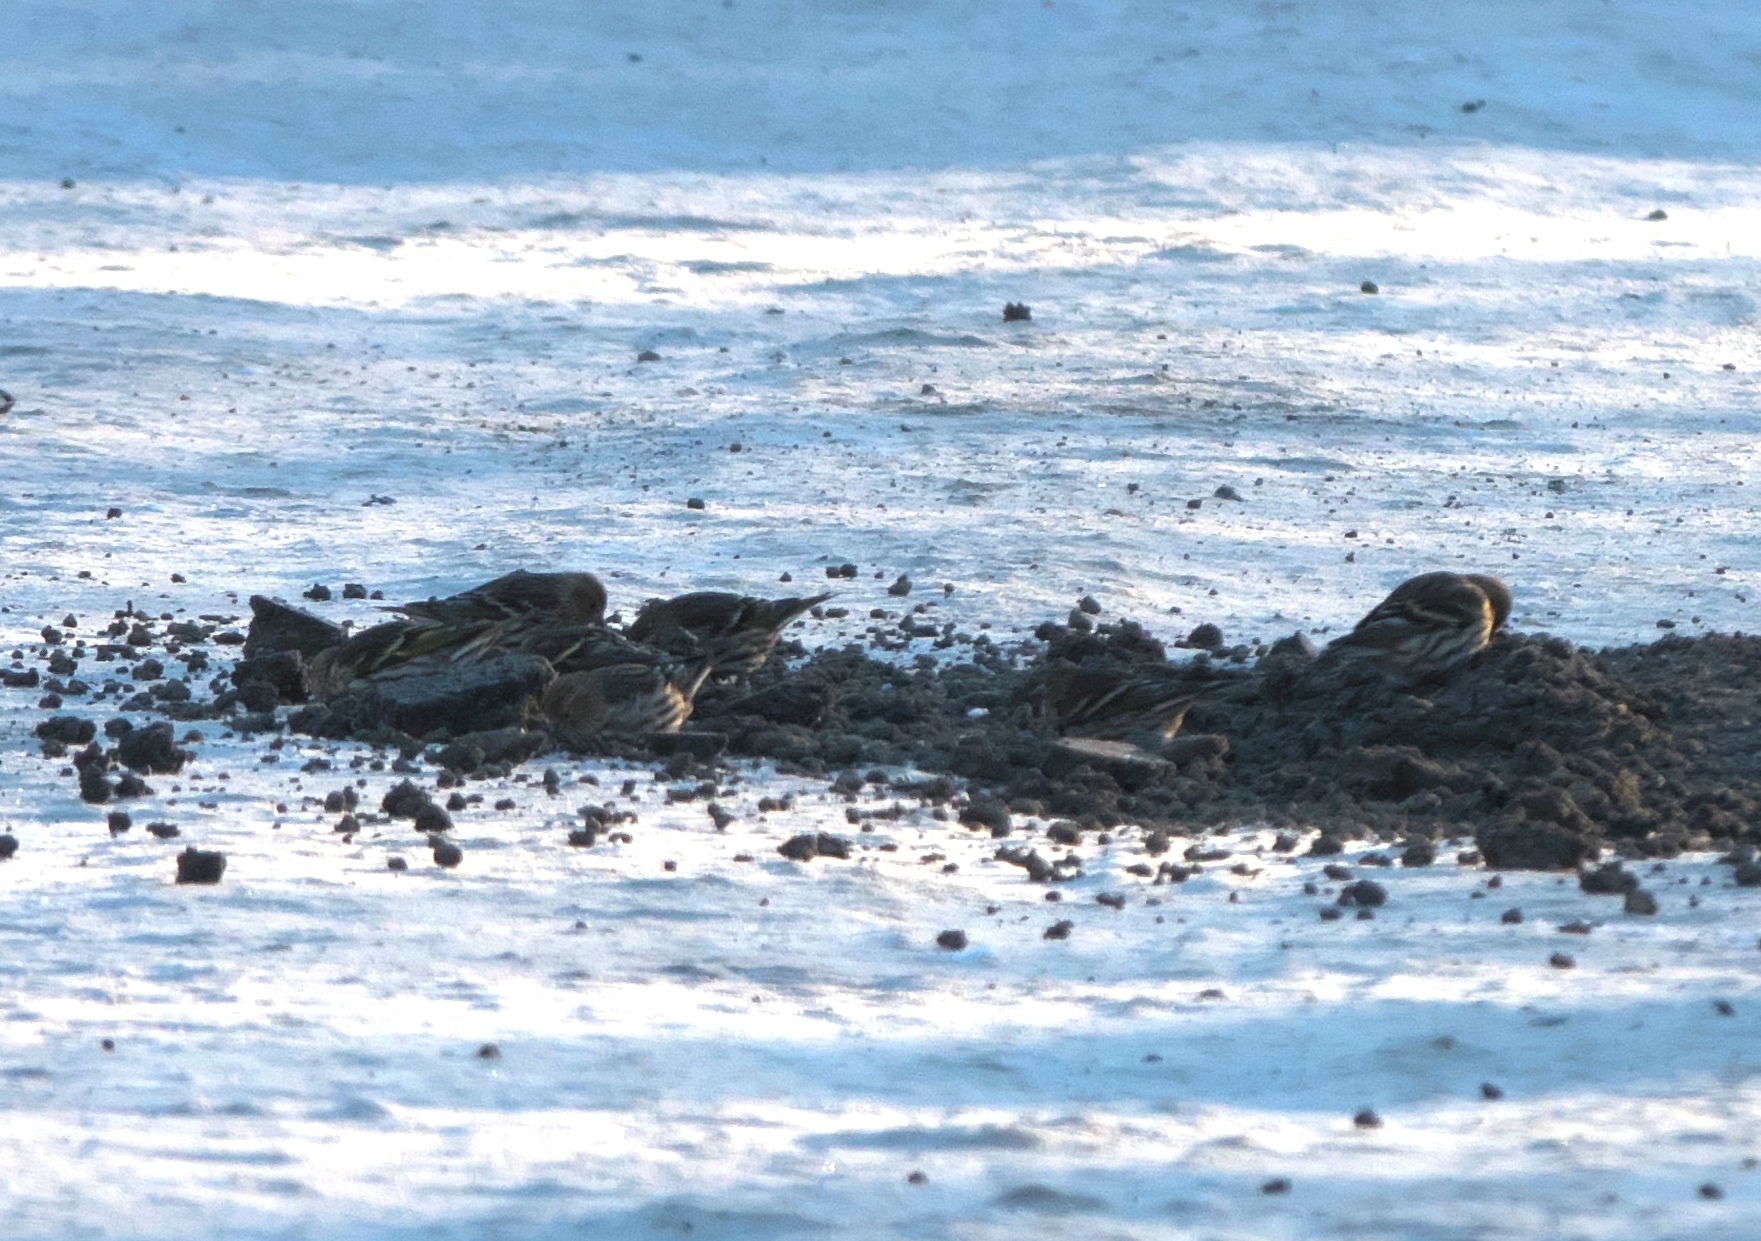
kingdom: Animalia
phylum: Chordata
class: Aves
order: Passeriformes
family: Fringillidae
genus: Spinus
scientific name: Spinus pinus
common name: Pine siskin
